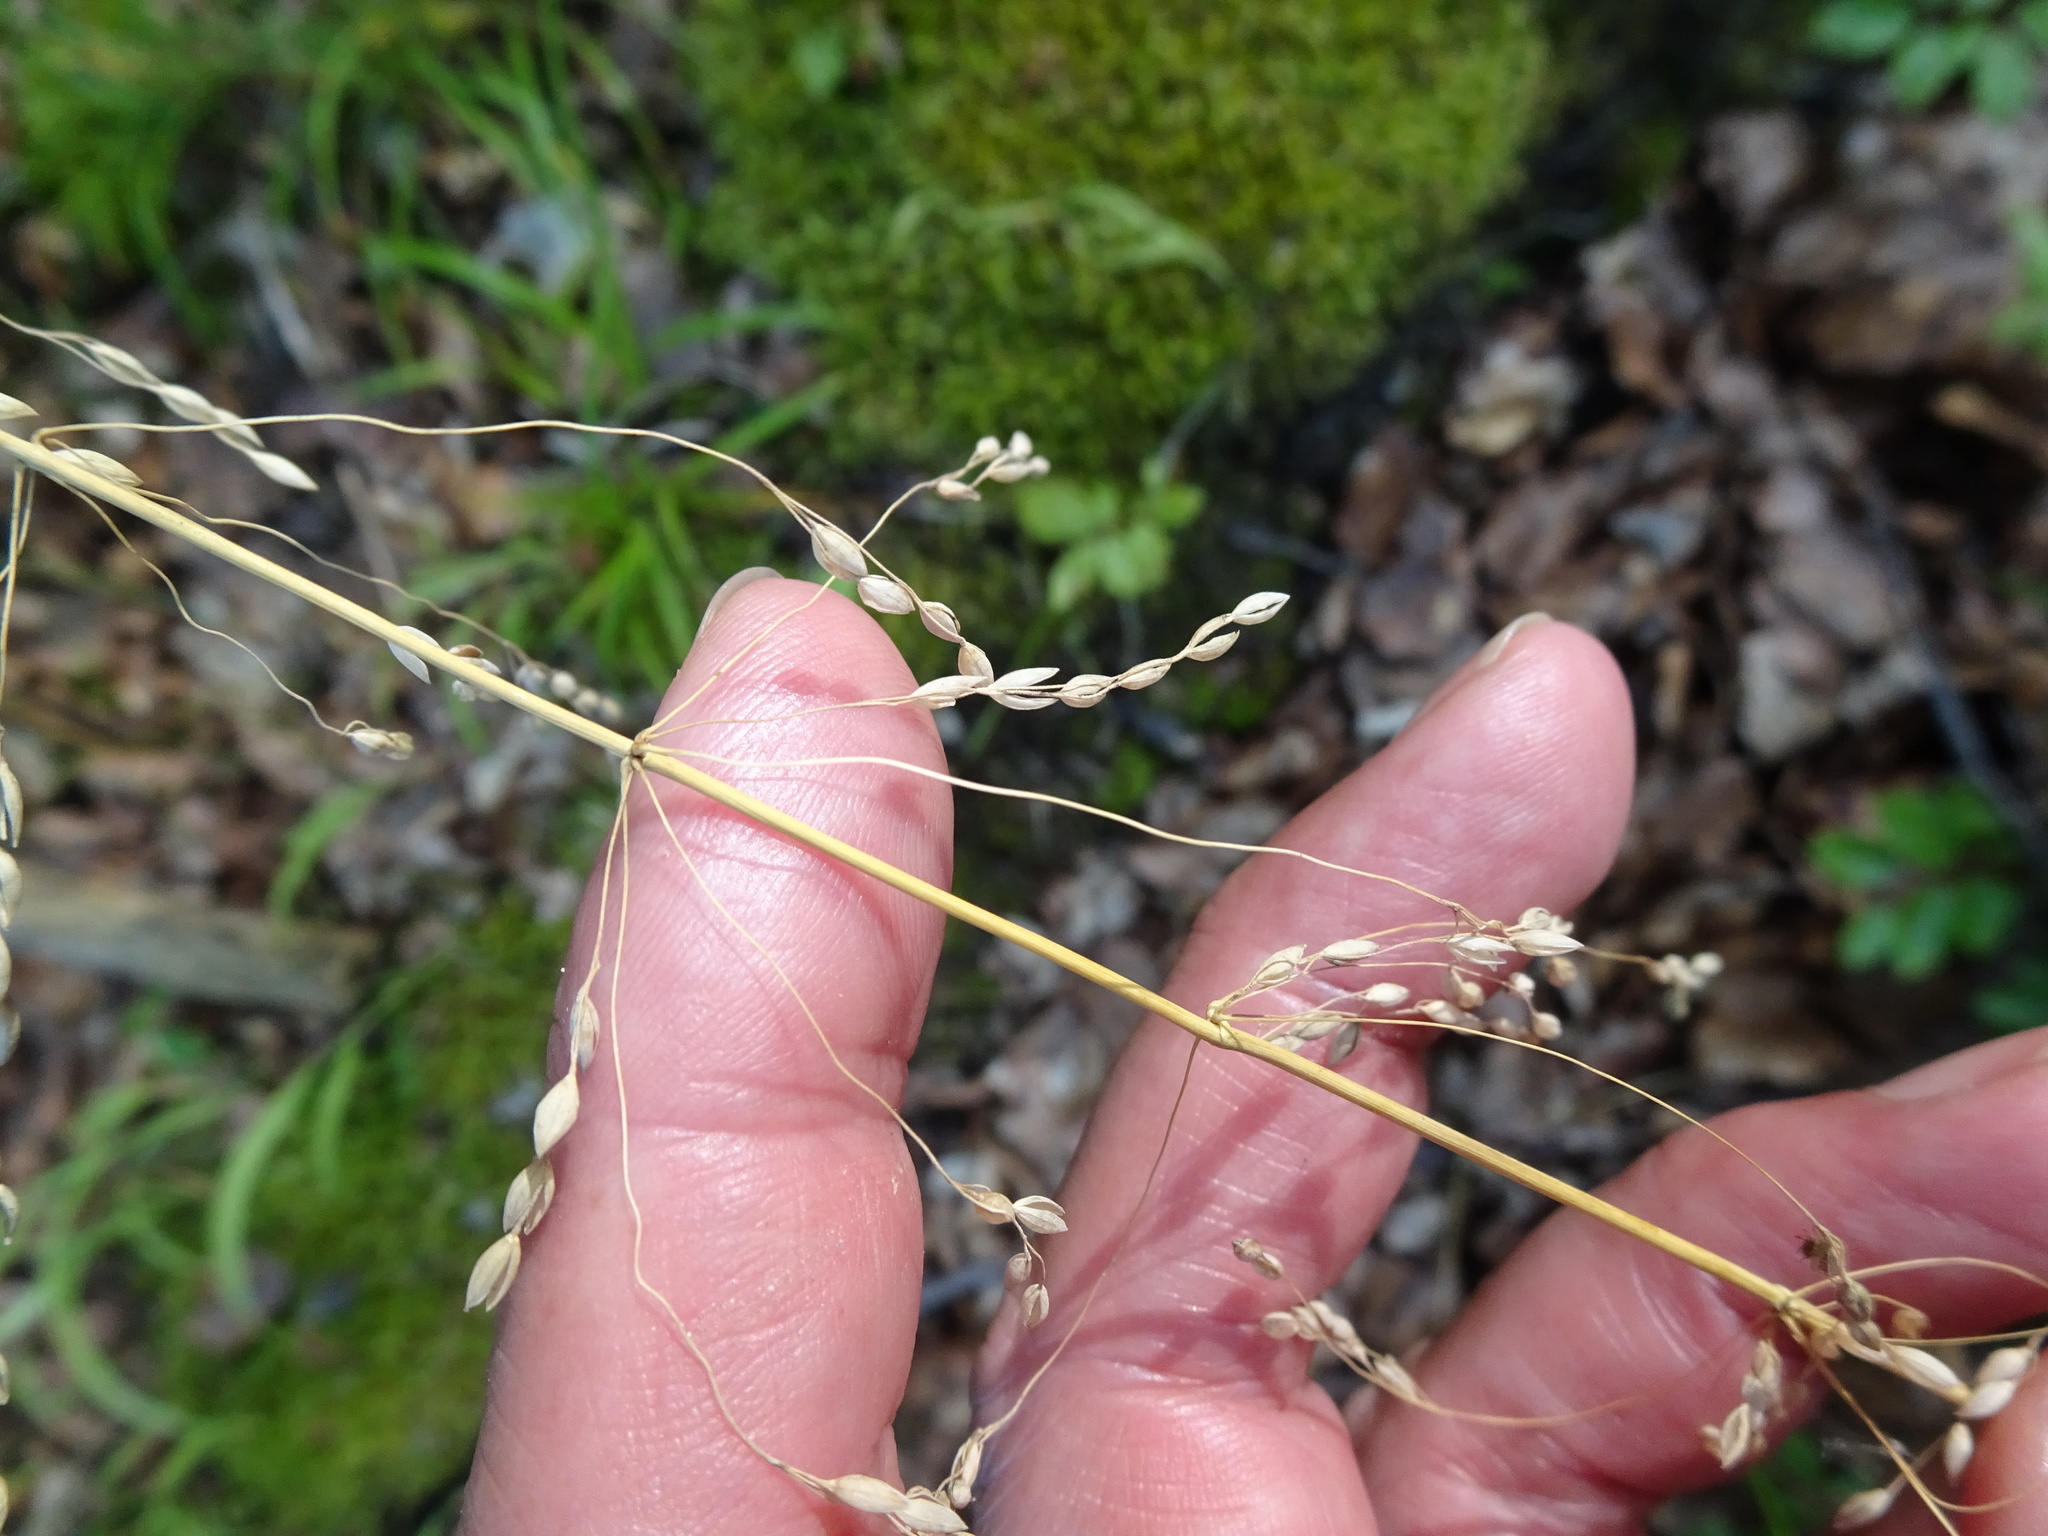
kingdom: Plantae
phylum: Tracheophyta
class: Liliopsida
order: Poales
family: Poaceae
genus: Milium
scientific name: Milium effusum
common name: Wood millet
